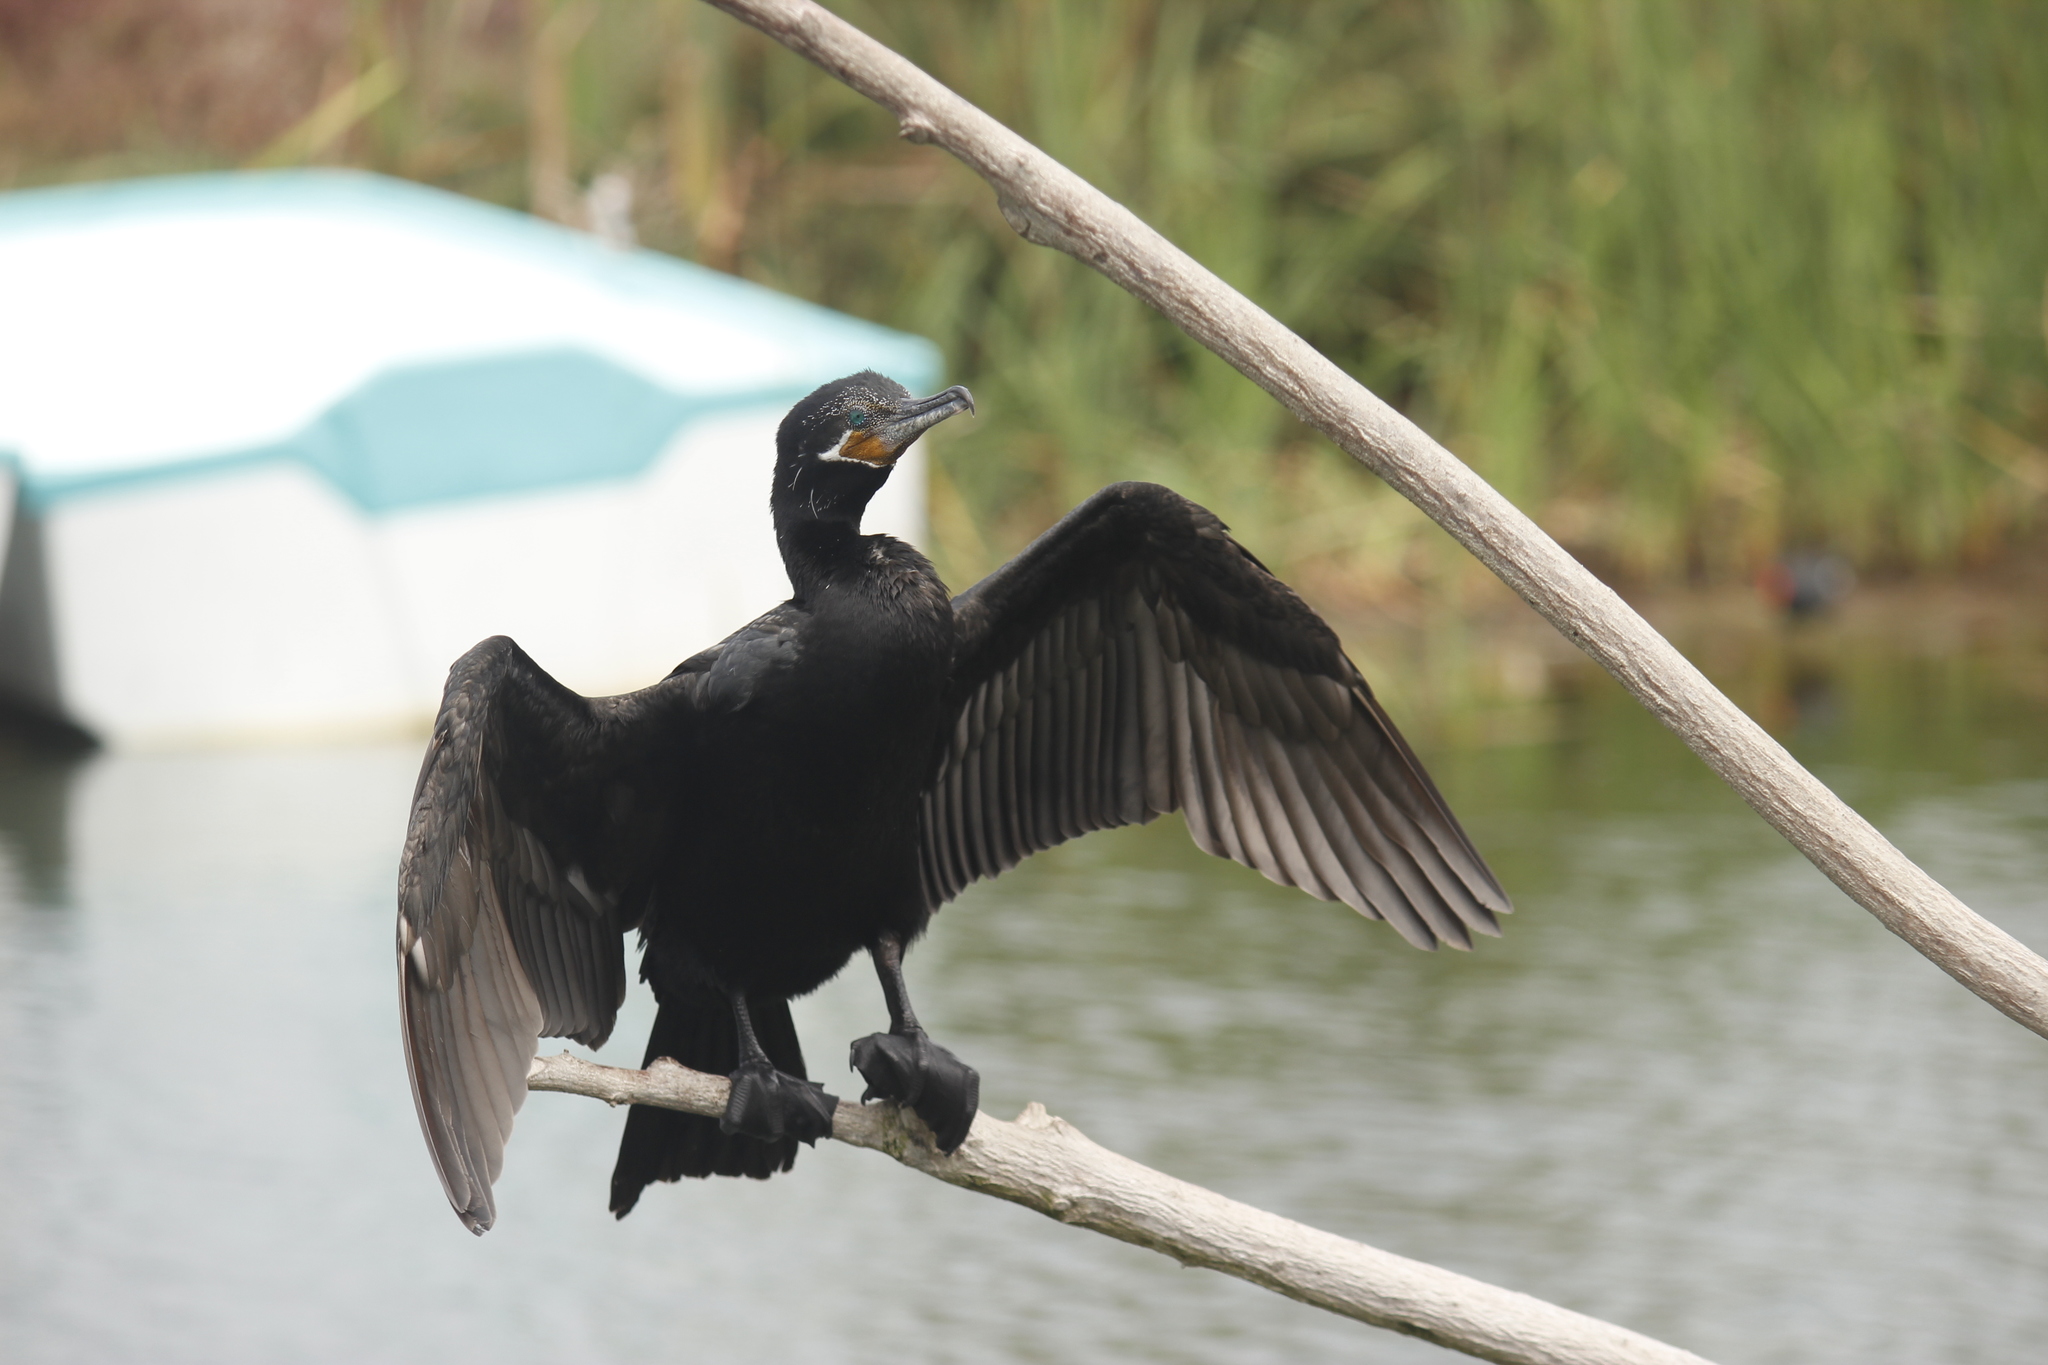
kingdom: Animalia
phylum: Chordata
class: Aves
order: Suliformes
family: Phalacrocoracidae
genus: Phalacrocorax
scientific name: Phalacrocorax brasilianus
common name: Neotropic cormorant
